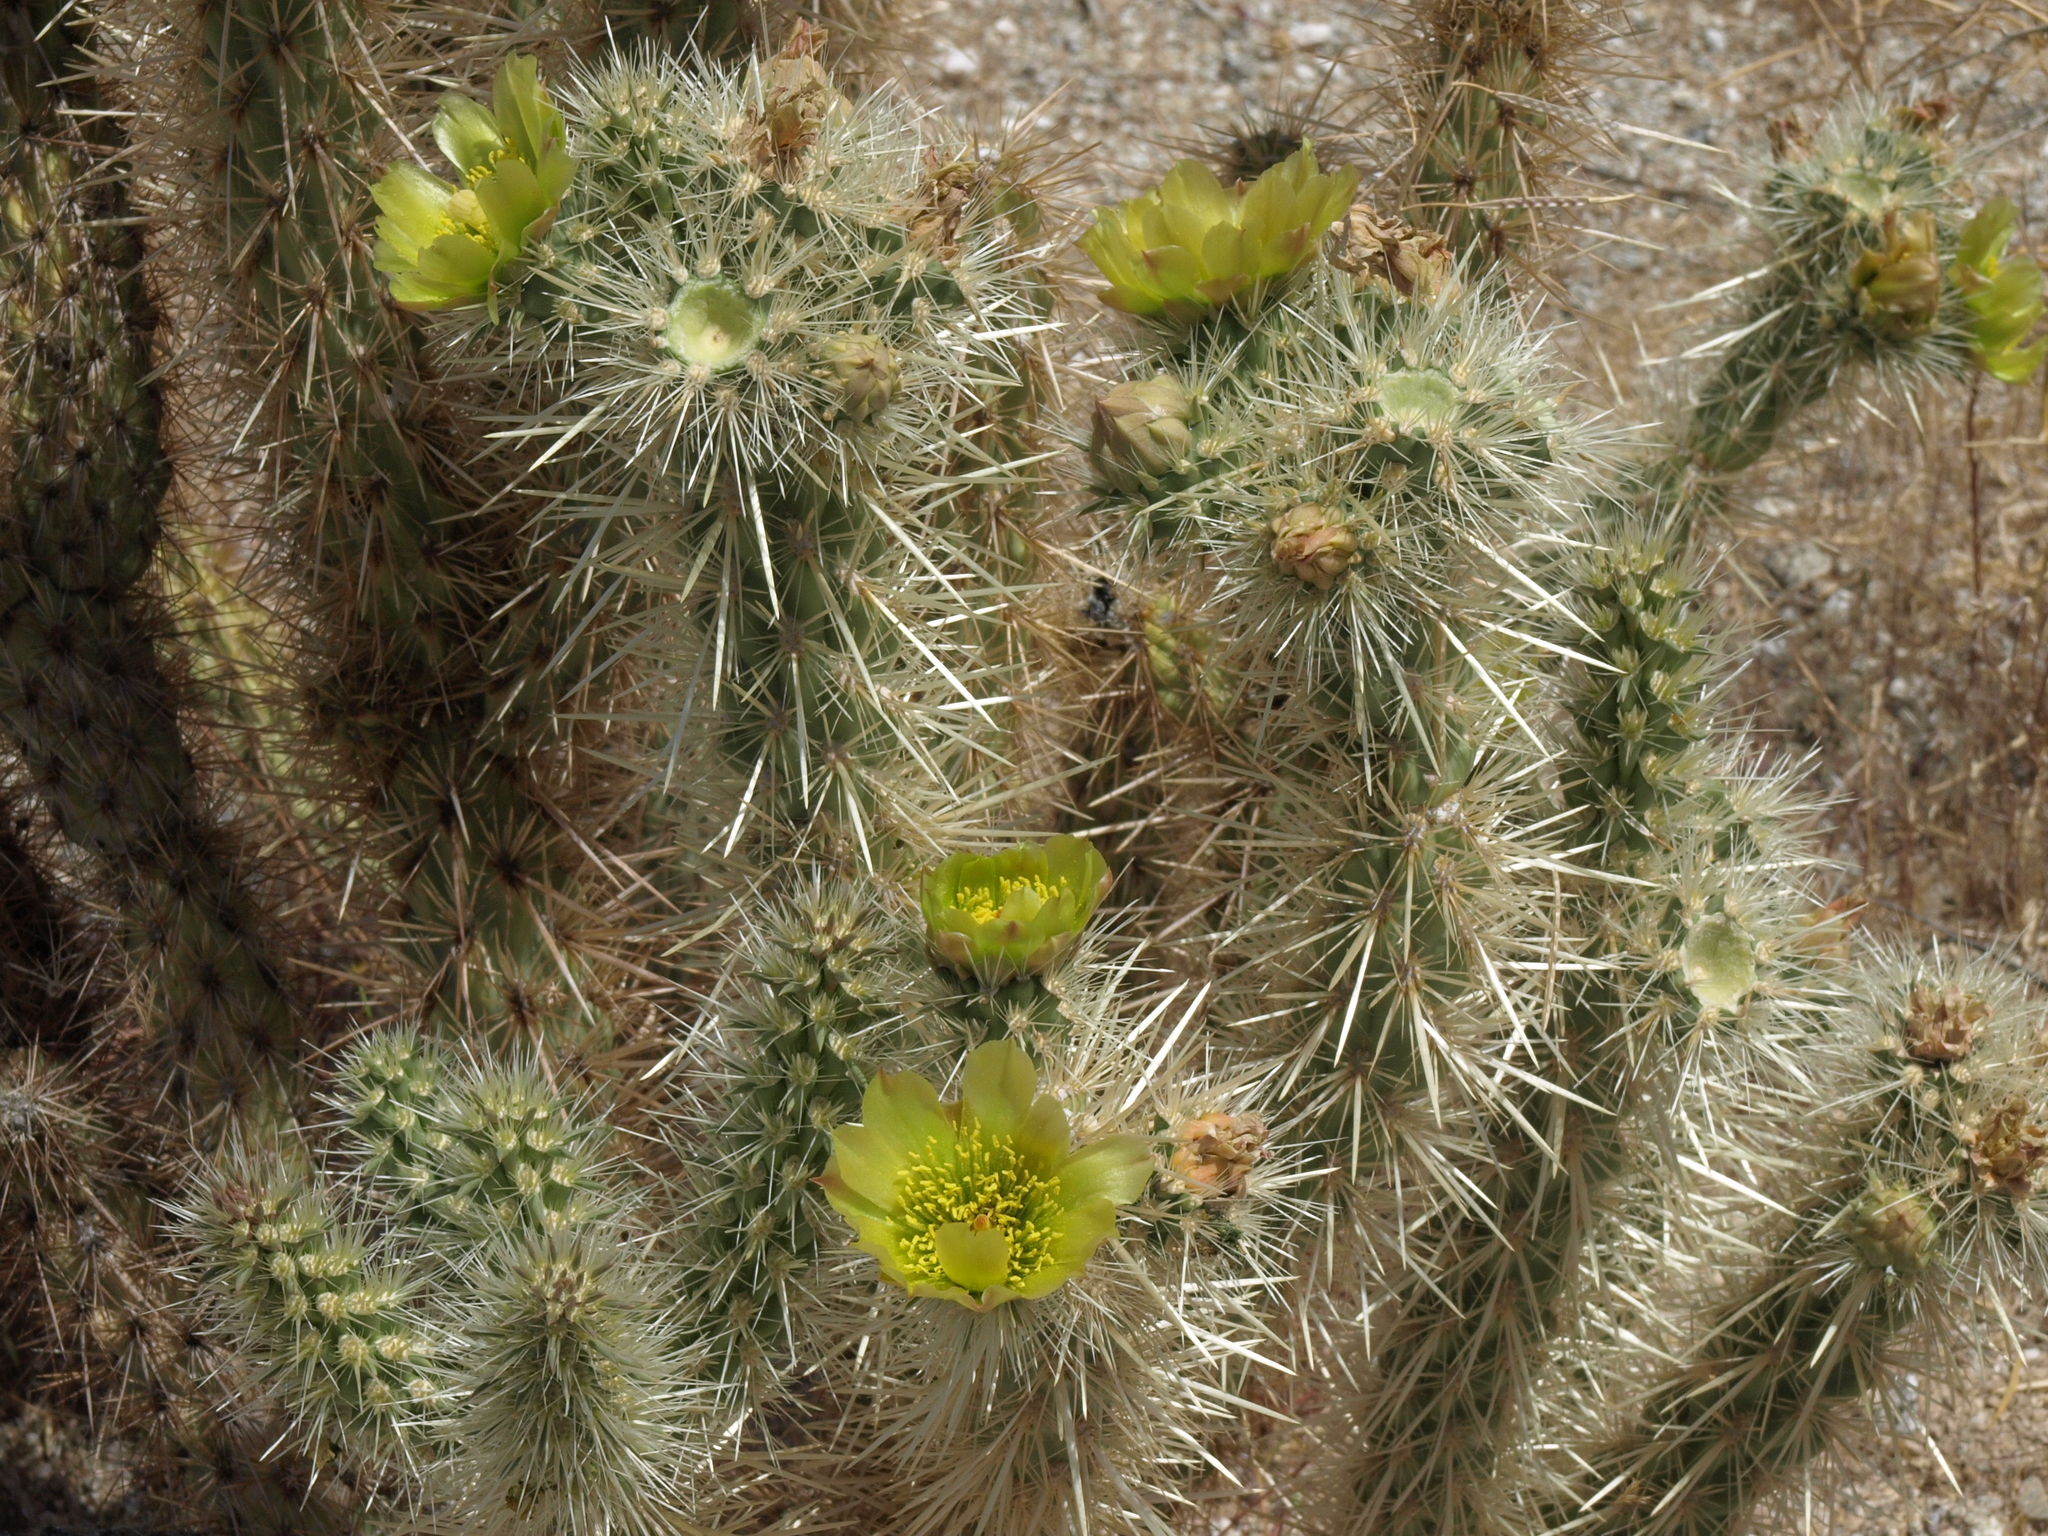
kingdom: Plantae
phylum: Tracheophyta
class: Magnoliopsida
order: Caryophyllales
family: Cactaceae
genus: Cylindropuntia
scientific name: Cylindropuntia ganderi
